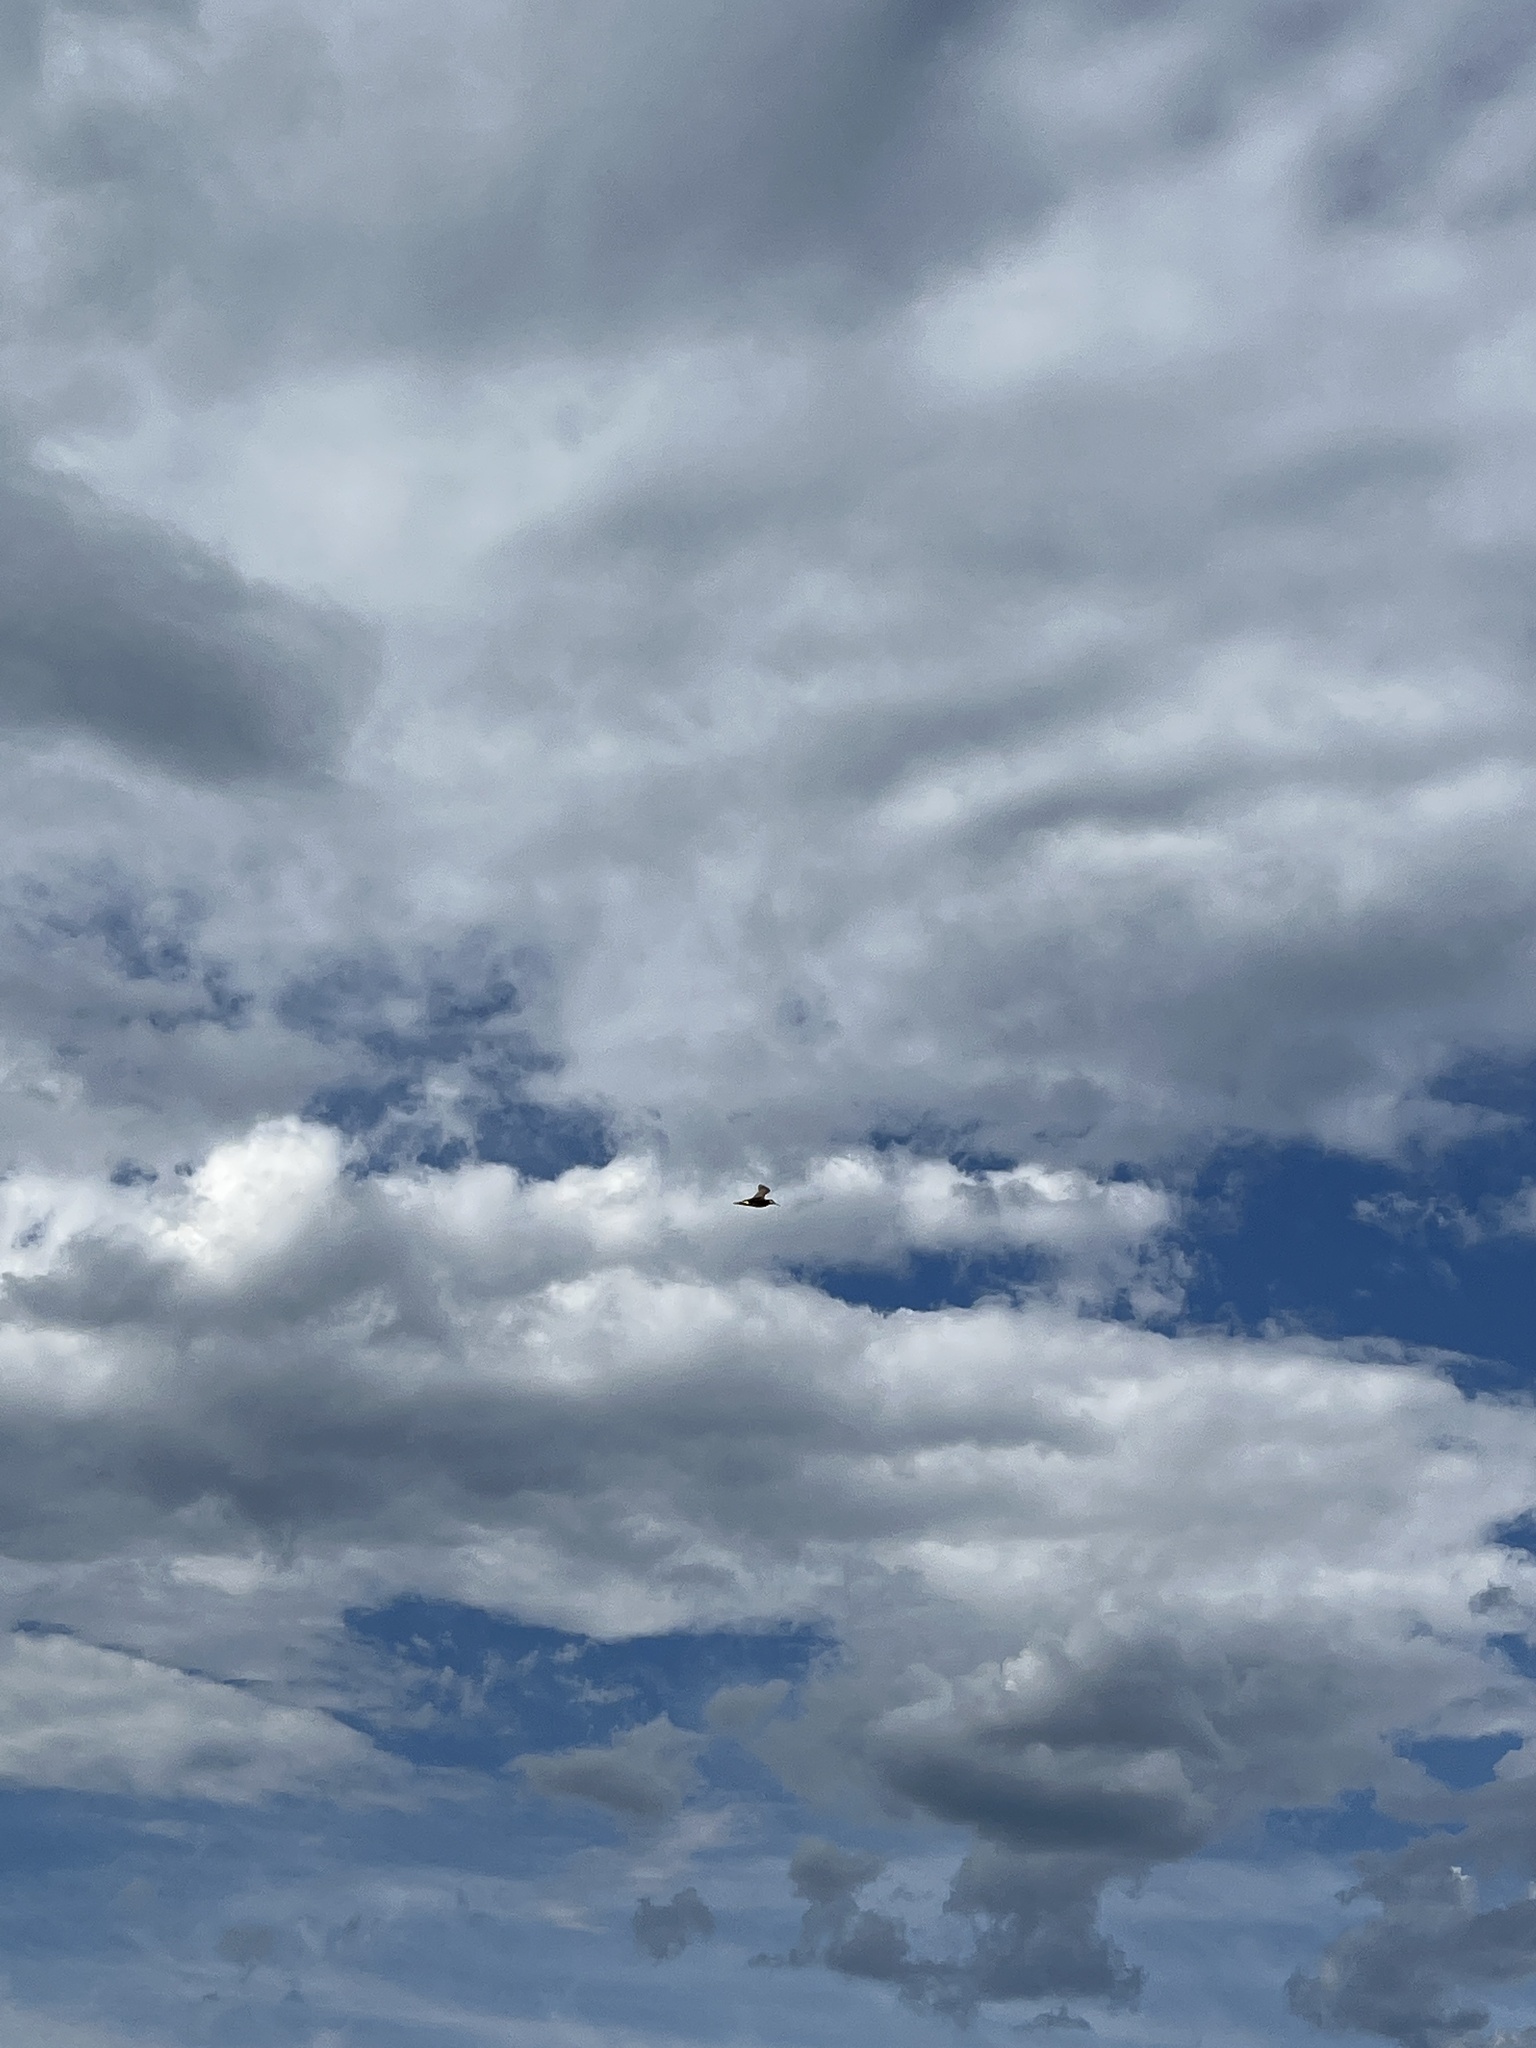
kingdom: Animalia
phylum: Chordata
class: Aves
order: Charadriiformes
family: Scolopacidae
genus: Phalaropus
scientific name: Phalaropus tricolor
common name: Wilson's phalarope
